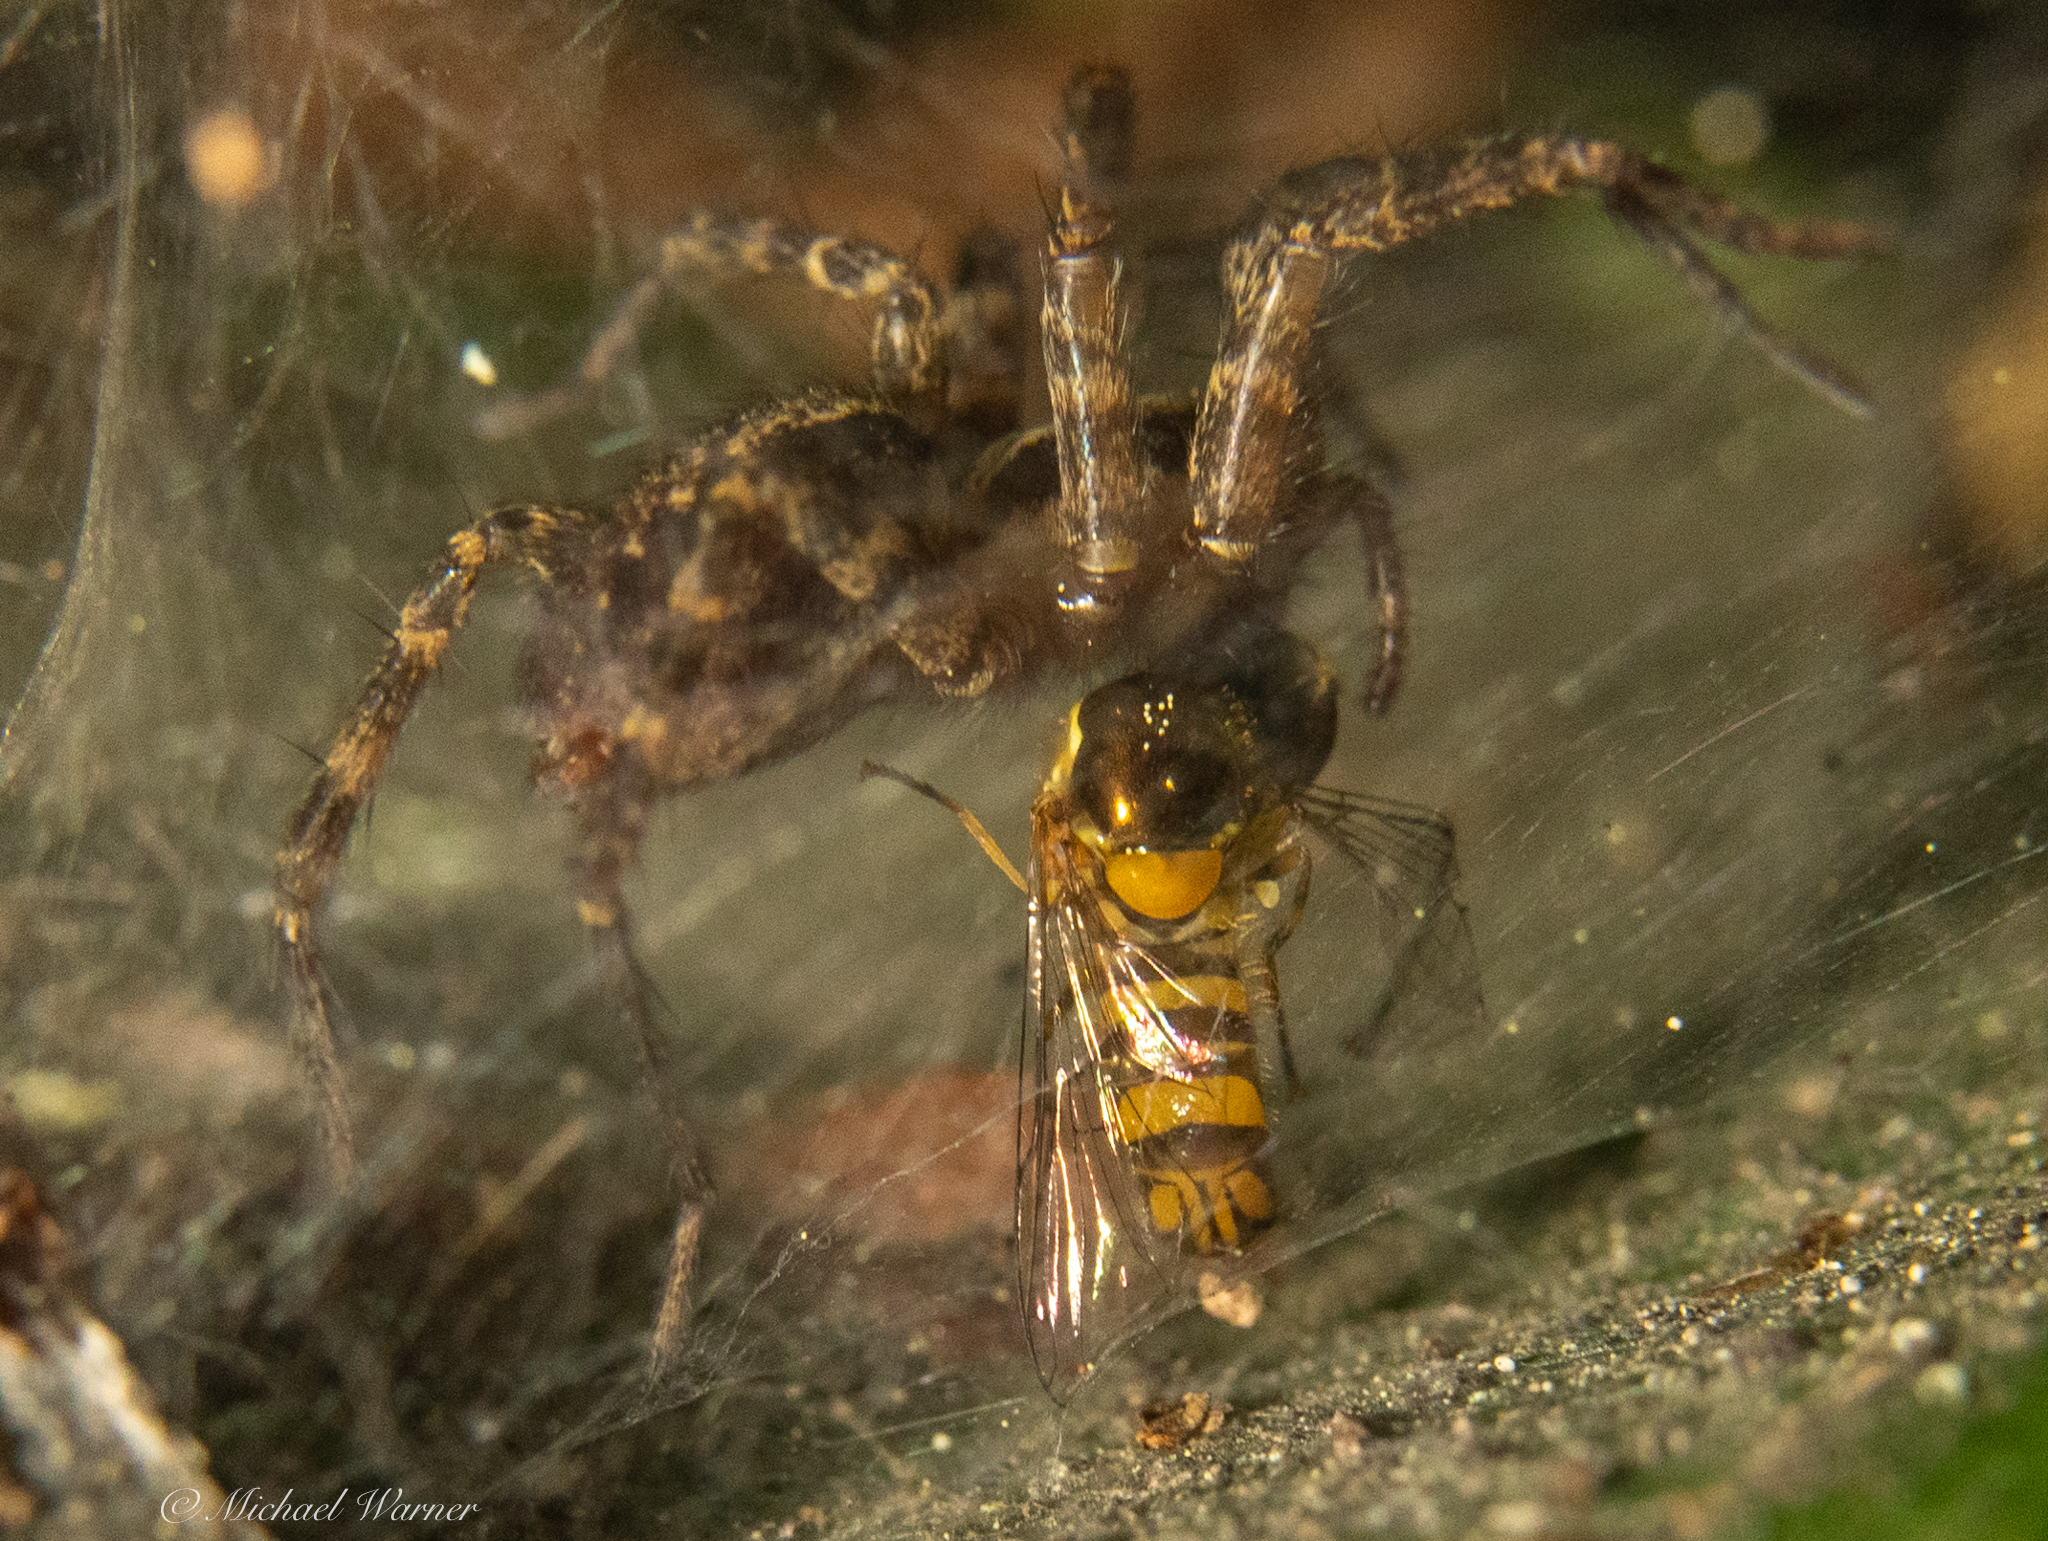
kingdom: Animalia
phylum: Arthropoda
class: Arachnida
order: Araneae
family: Agelenidae
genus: Hololena
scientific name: Hololena
